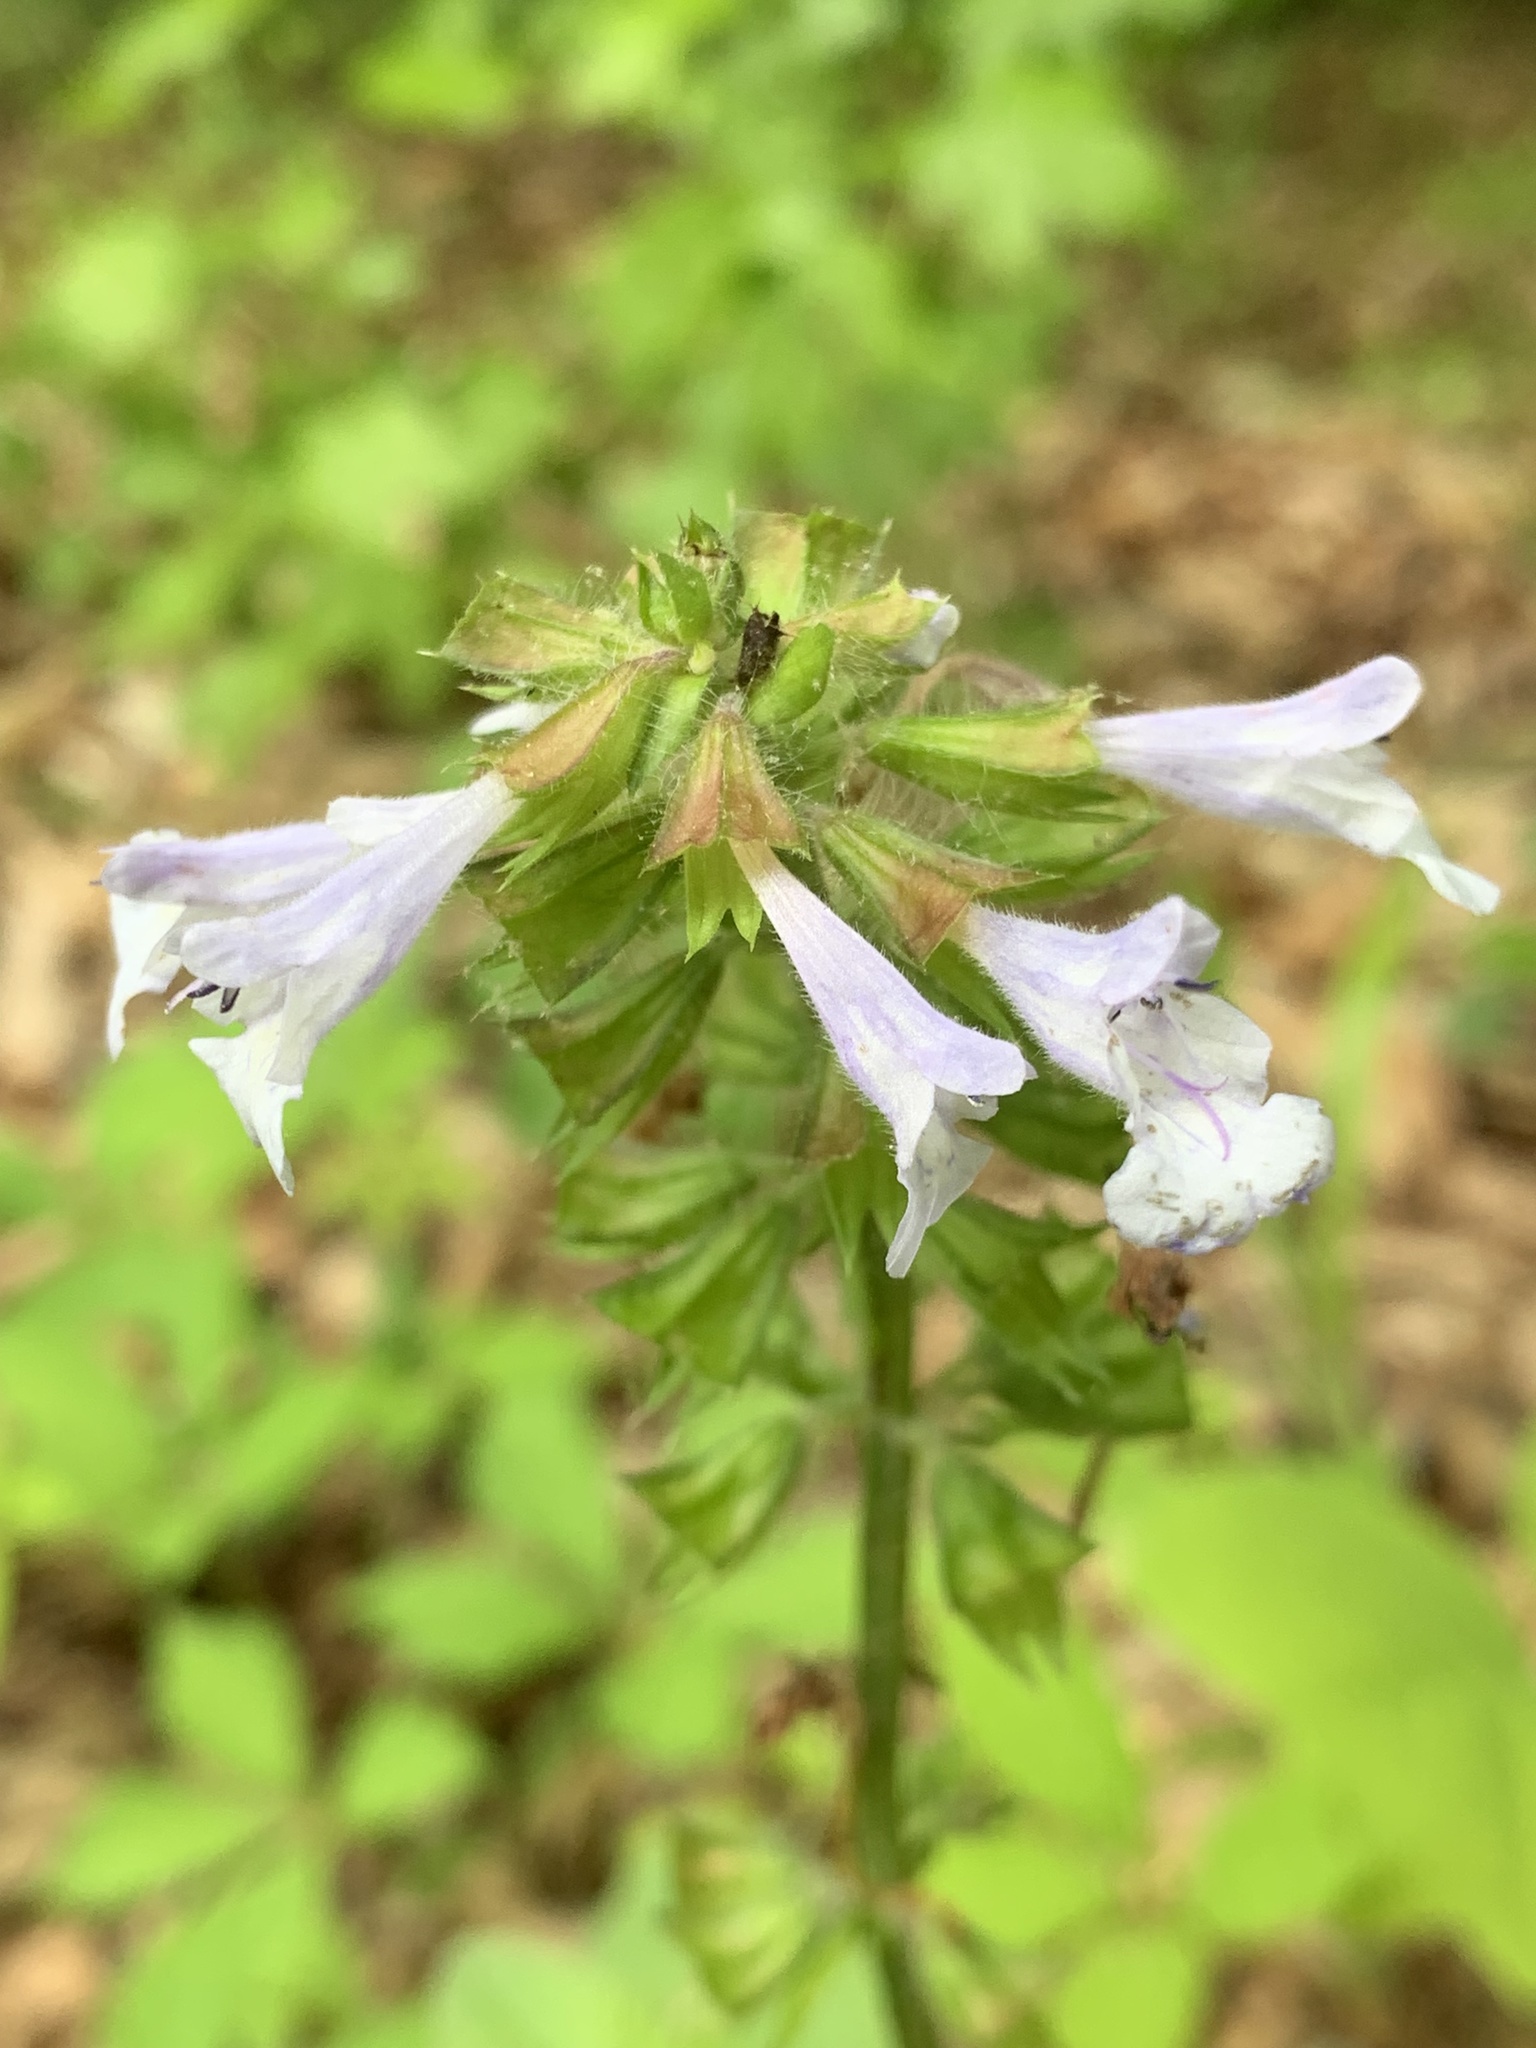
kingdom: Plantae
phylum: Tracheophyta
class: Magnoliopsida
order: Lamiales
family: Lamiaceae
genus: Salvia
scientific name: Salvia lyrata
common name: Cancerweed
